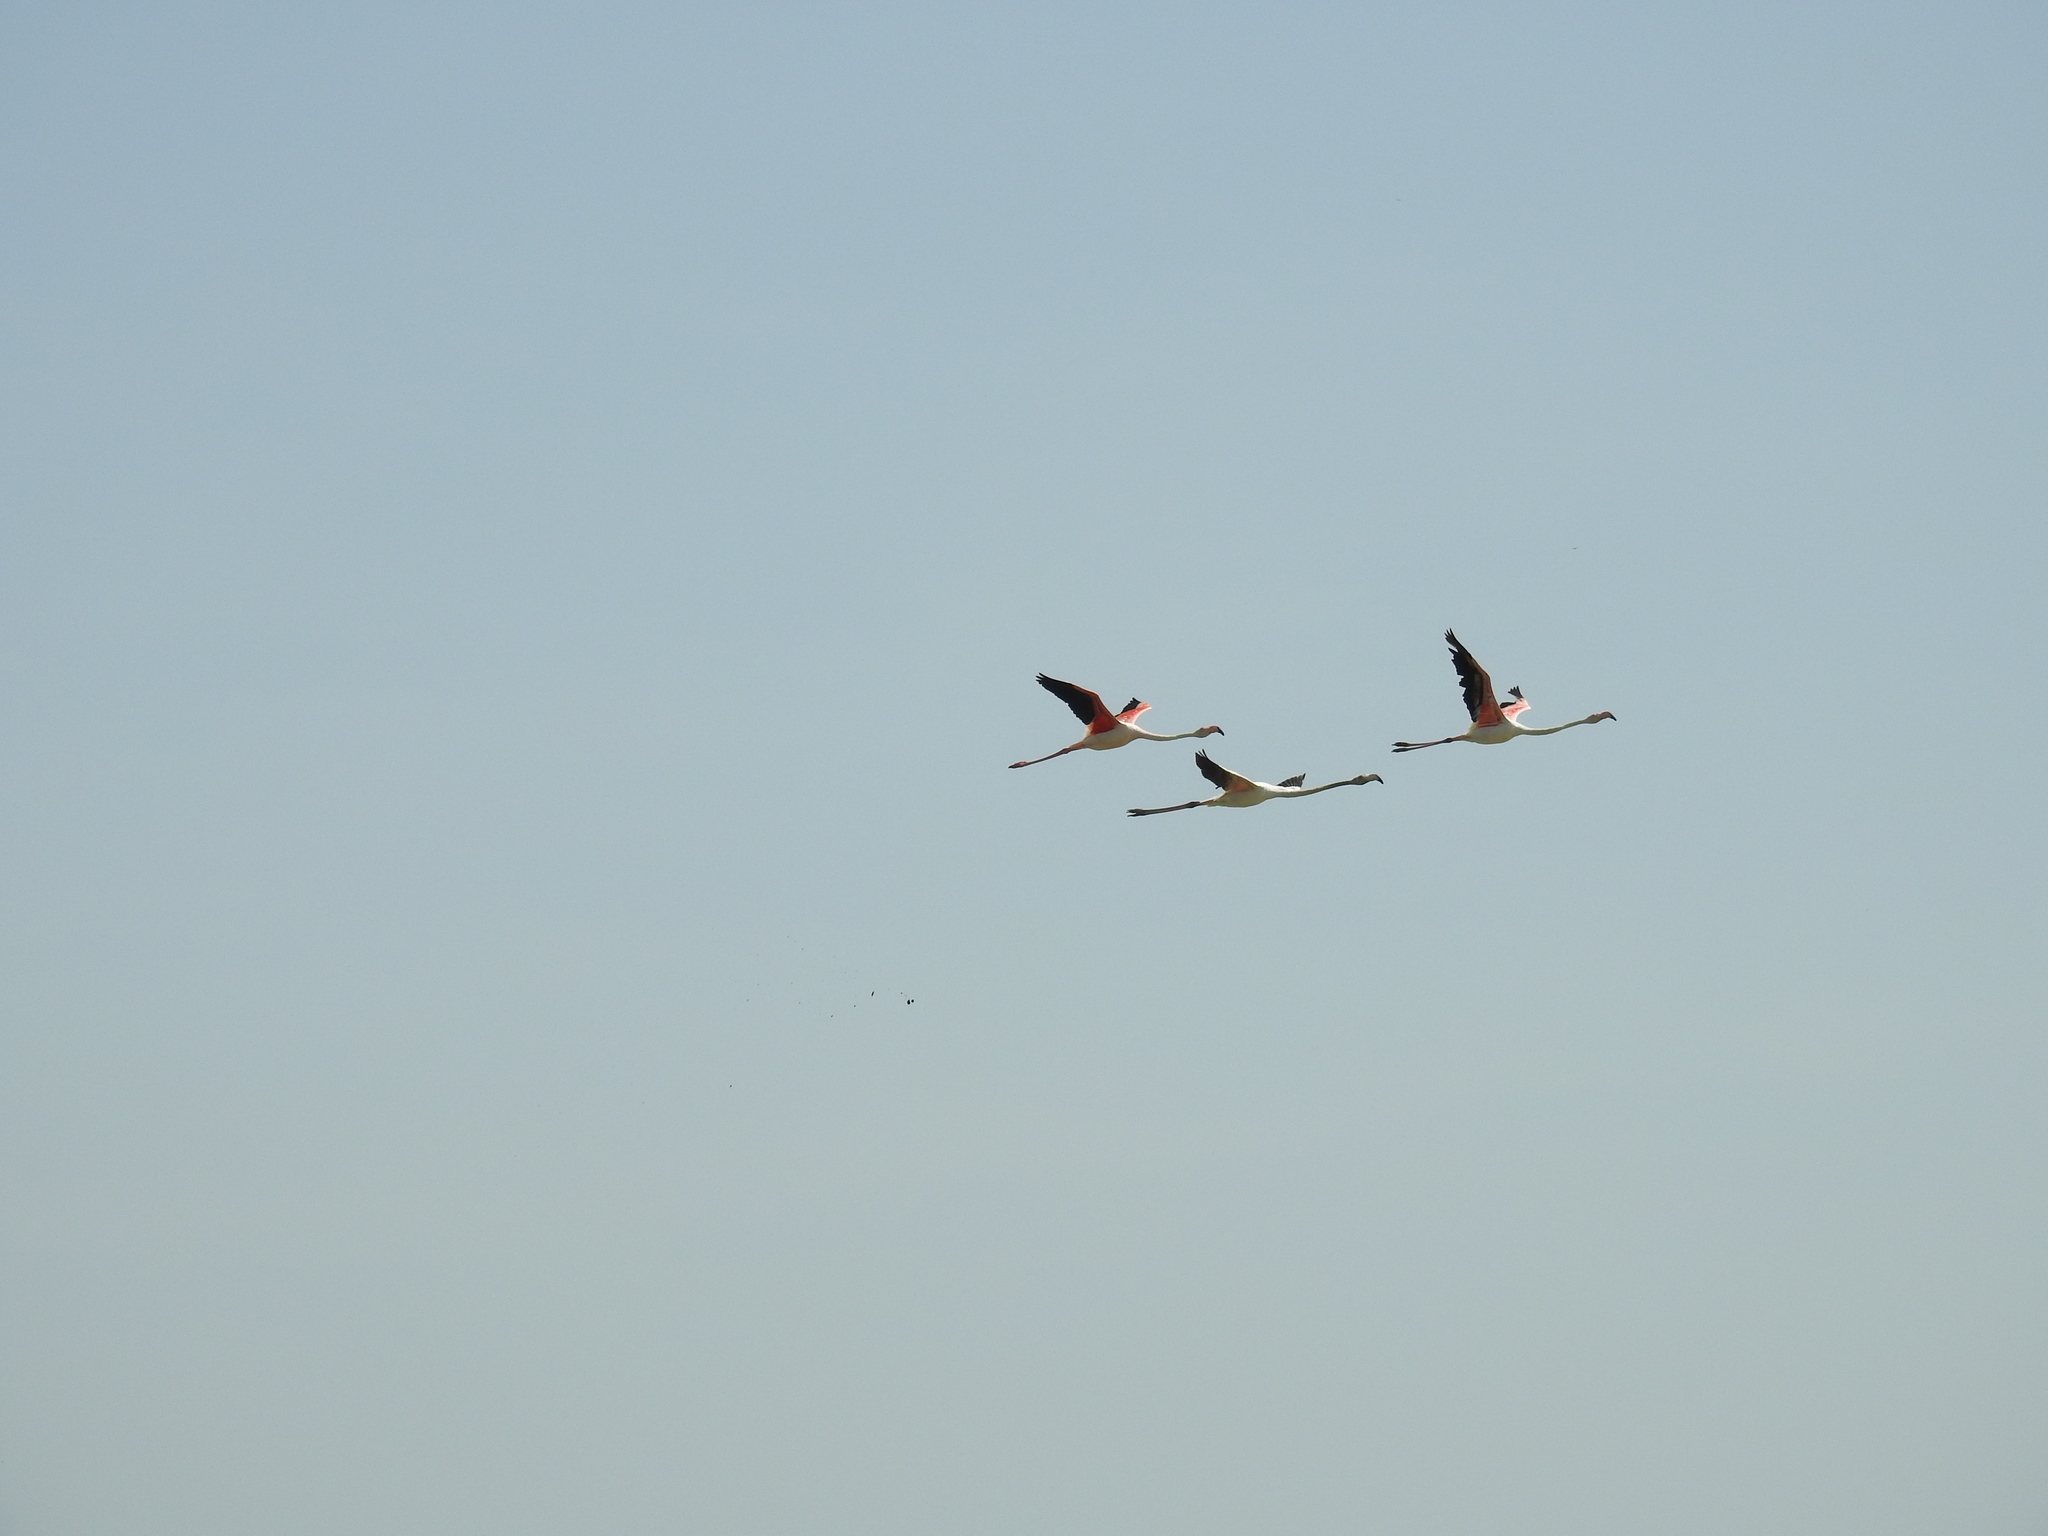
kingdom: Animalia
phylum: Chordata
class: Aves
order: Phoenicopteriformes
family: Phoenicopteridae
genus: Phoenicopterus
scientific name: Phoenicopterus roseus
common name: Greater flamingo
